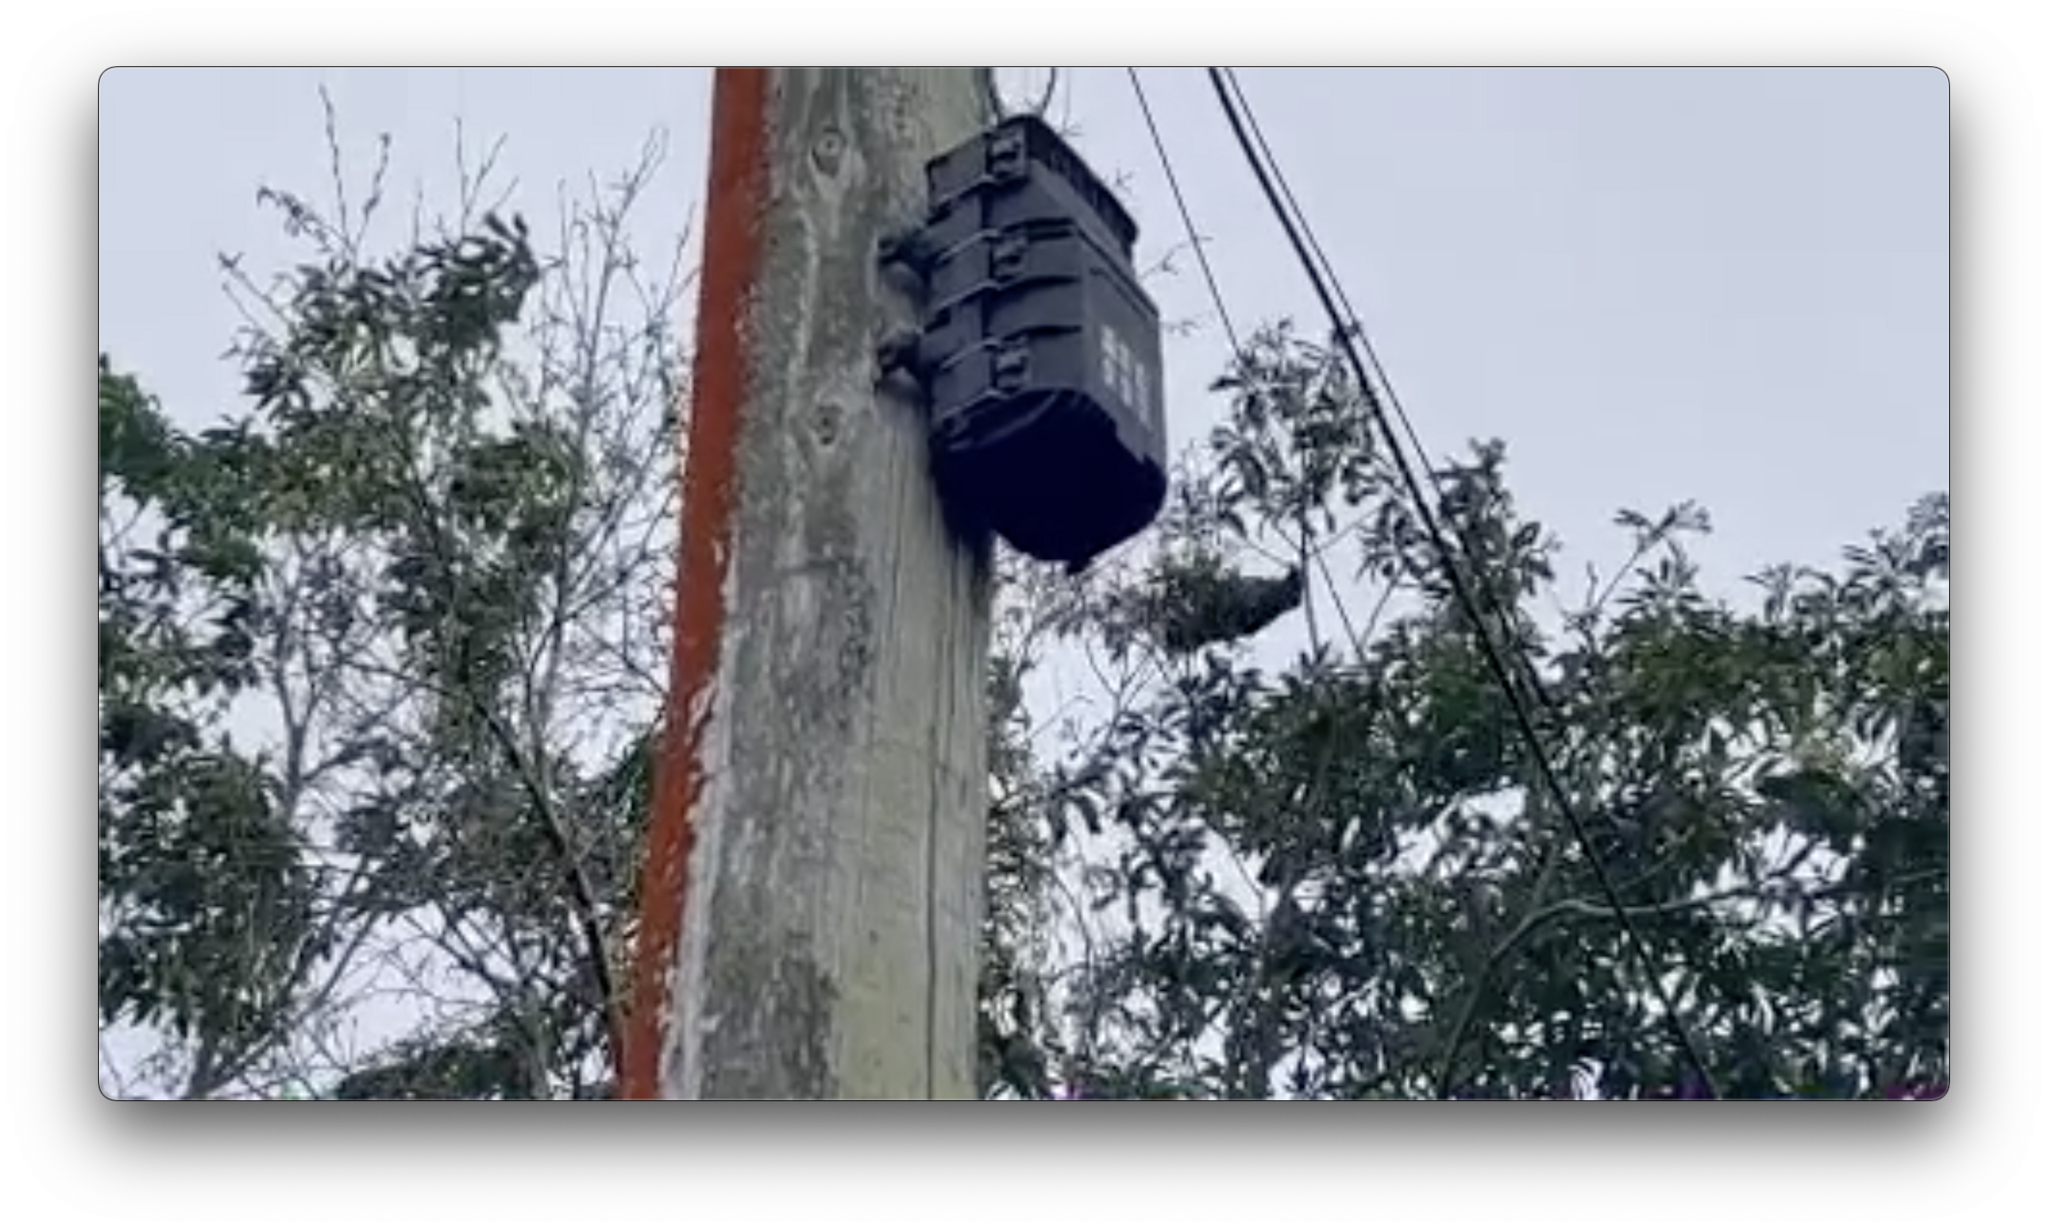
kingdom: Animalia
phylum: Chordata
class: Aves
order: Psittaciformes
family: Psittacidae
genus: Nestor
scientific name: Nestor meridionalis
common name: New zealand kaka
